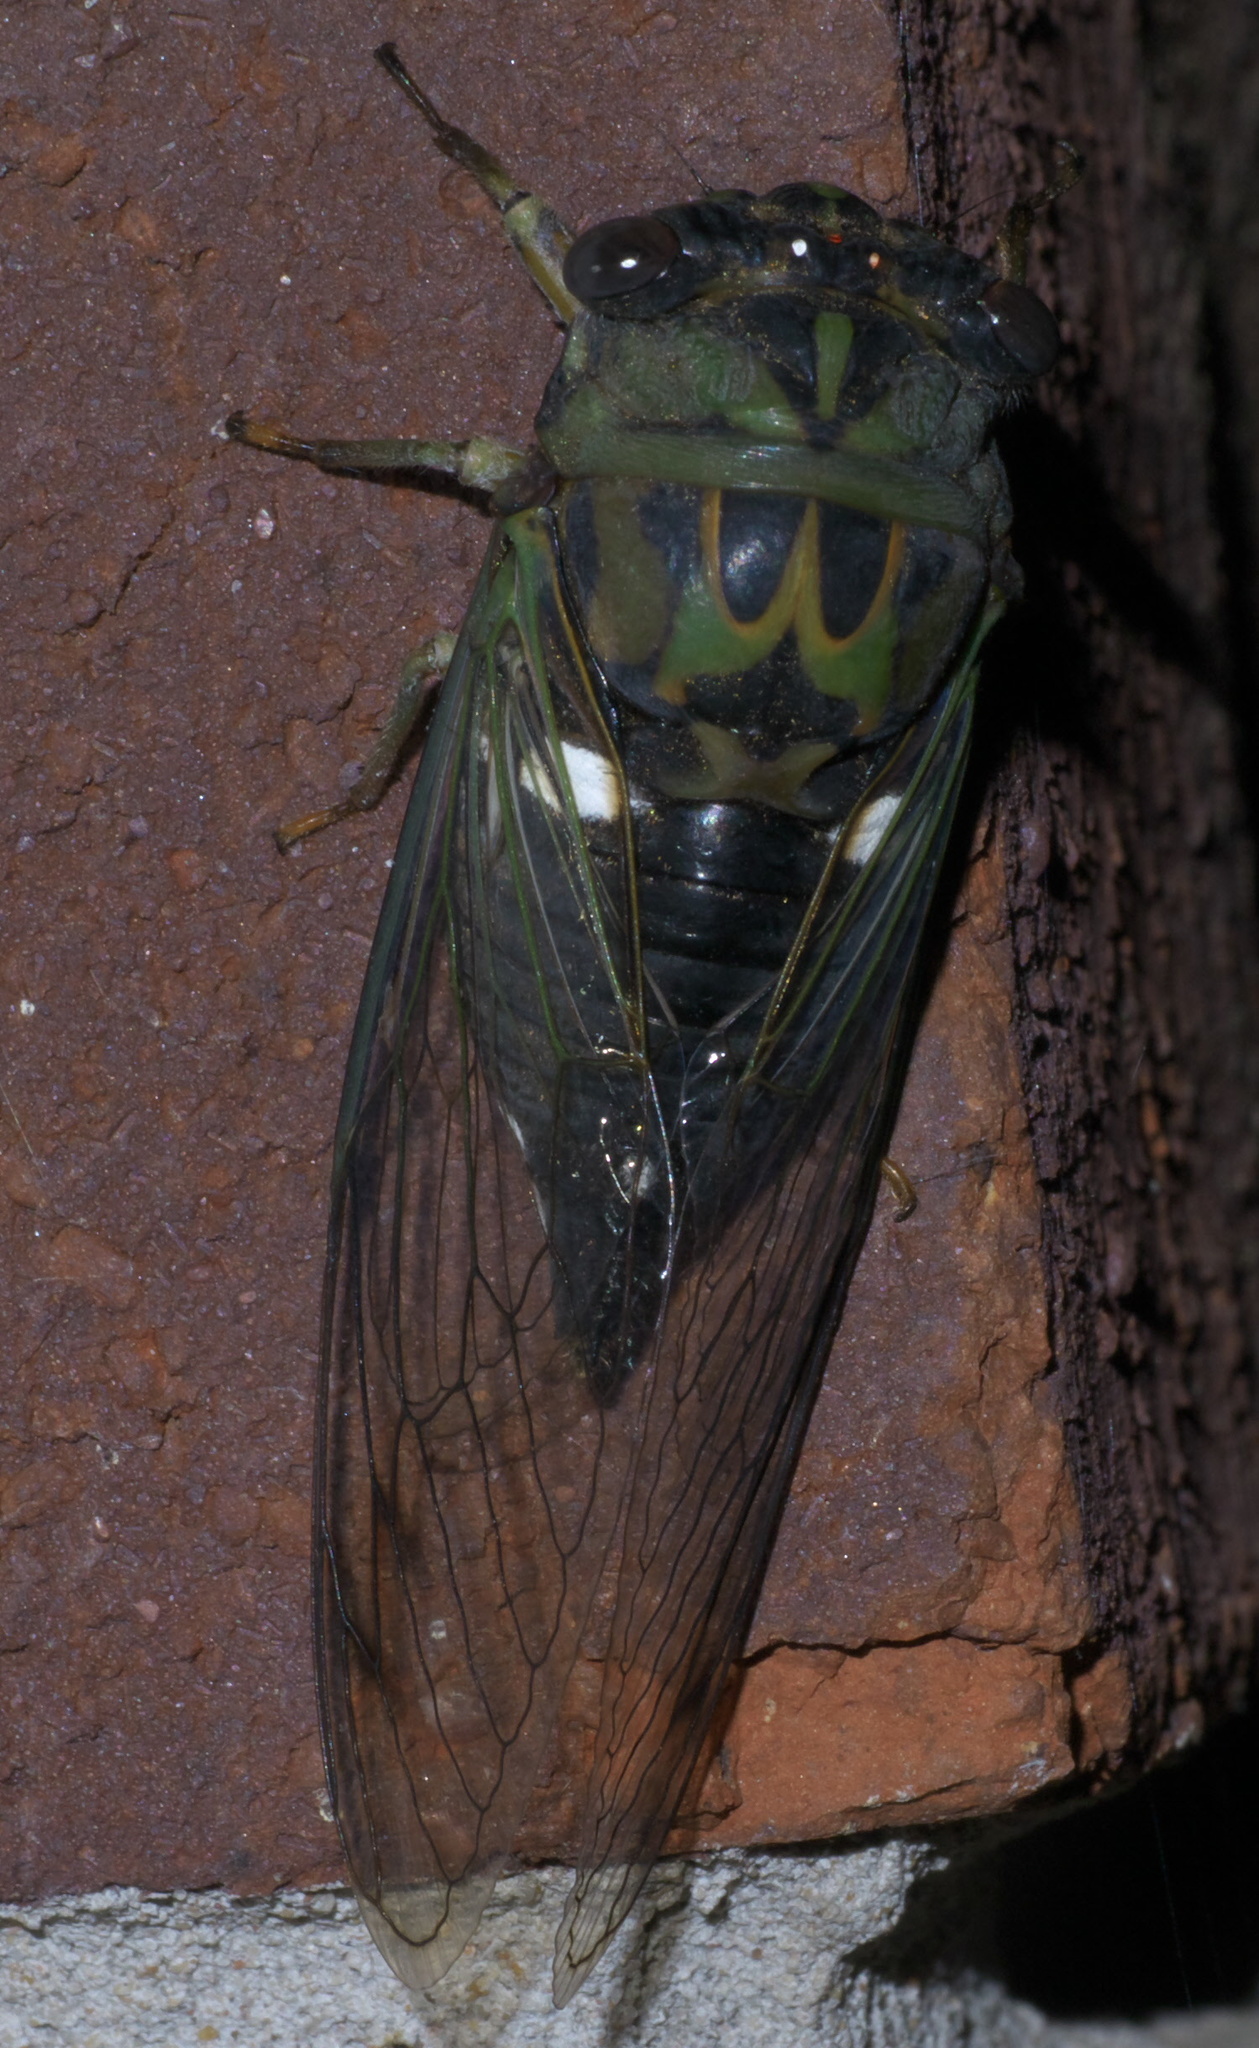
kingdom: Animalia
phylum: Arthropoda
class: Insecta
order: Hemiptera
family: Cicadidae
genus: Neotibicen
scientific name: Neotibicen pruinosus
